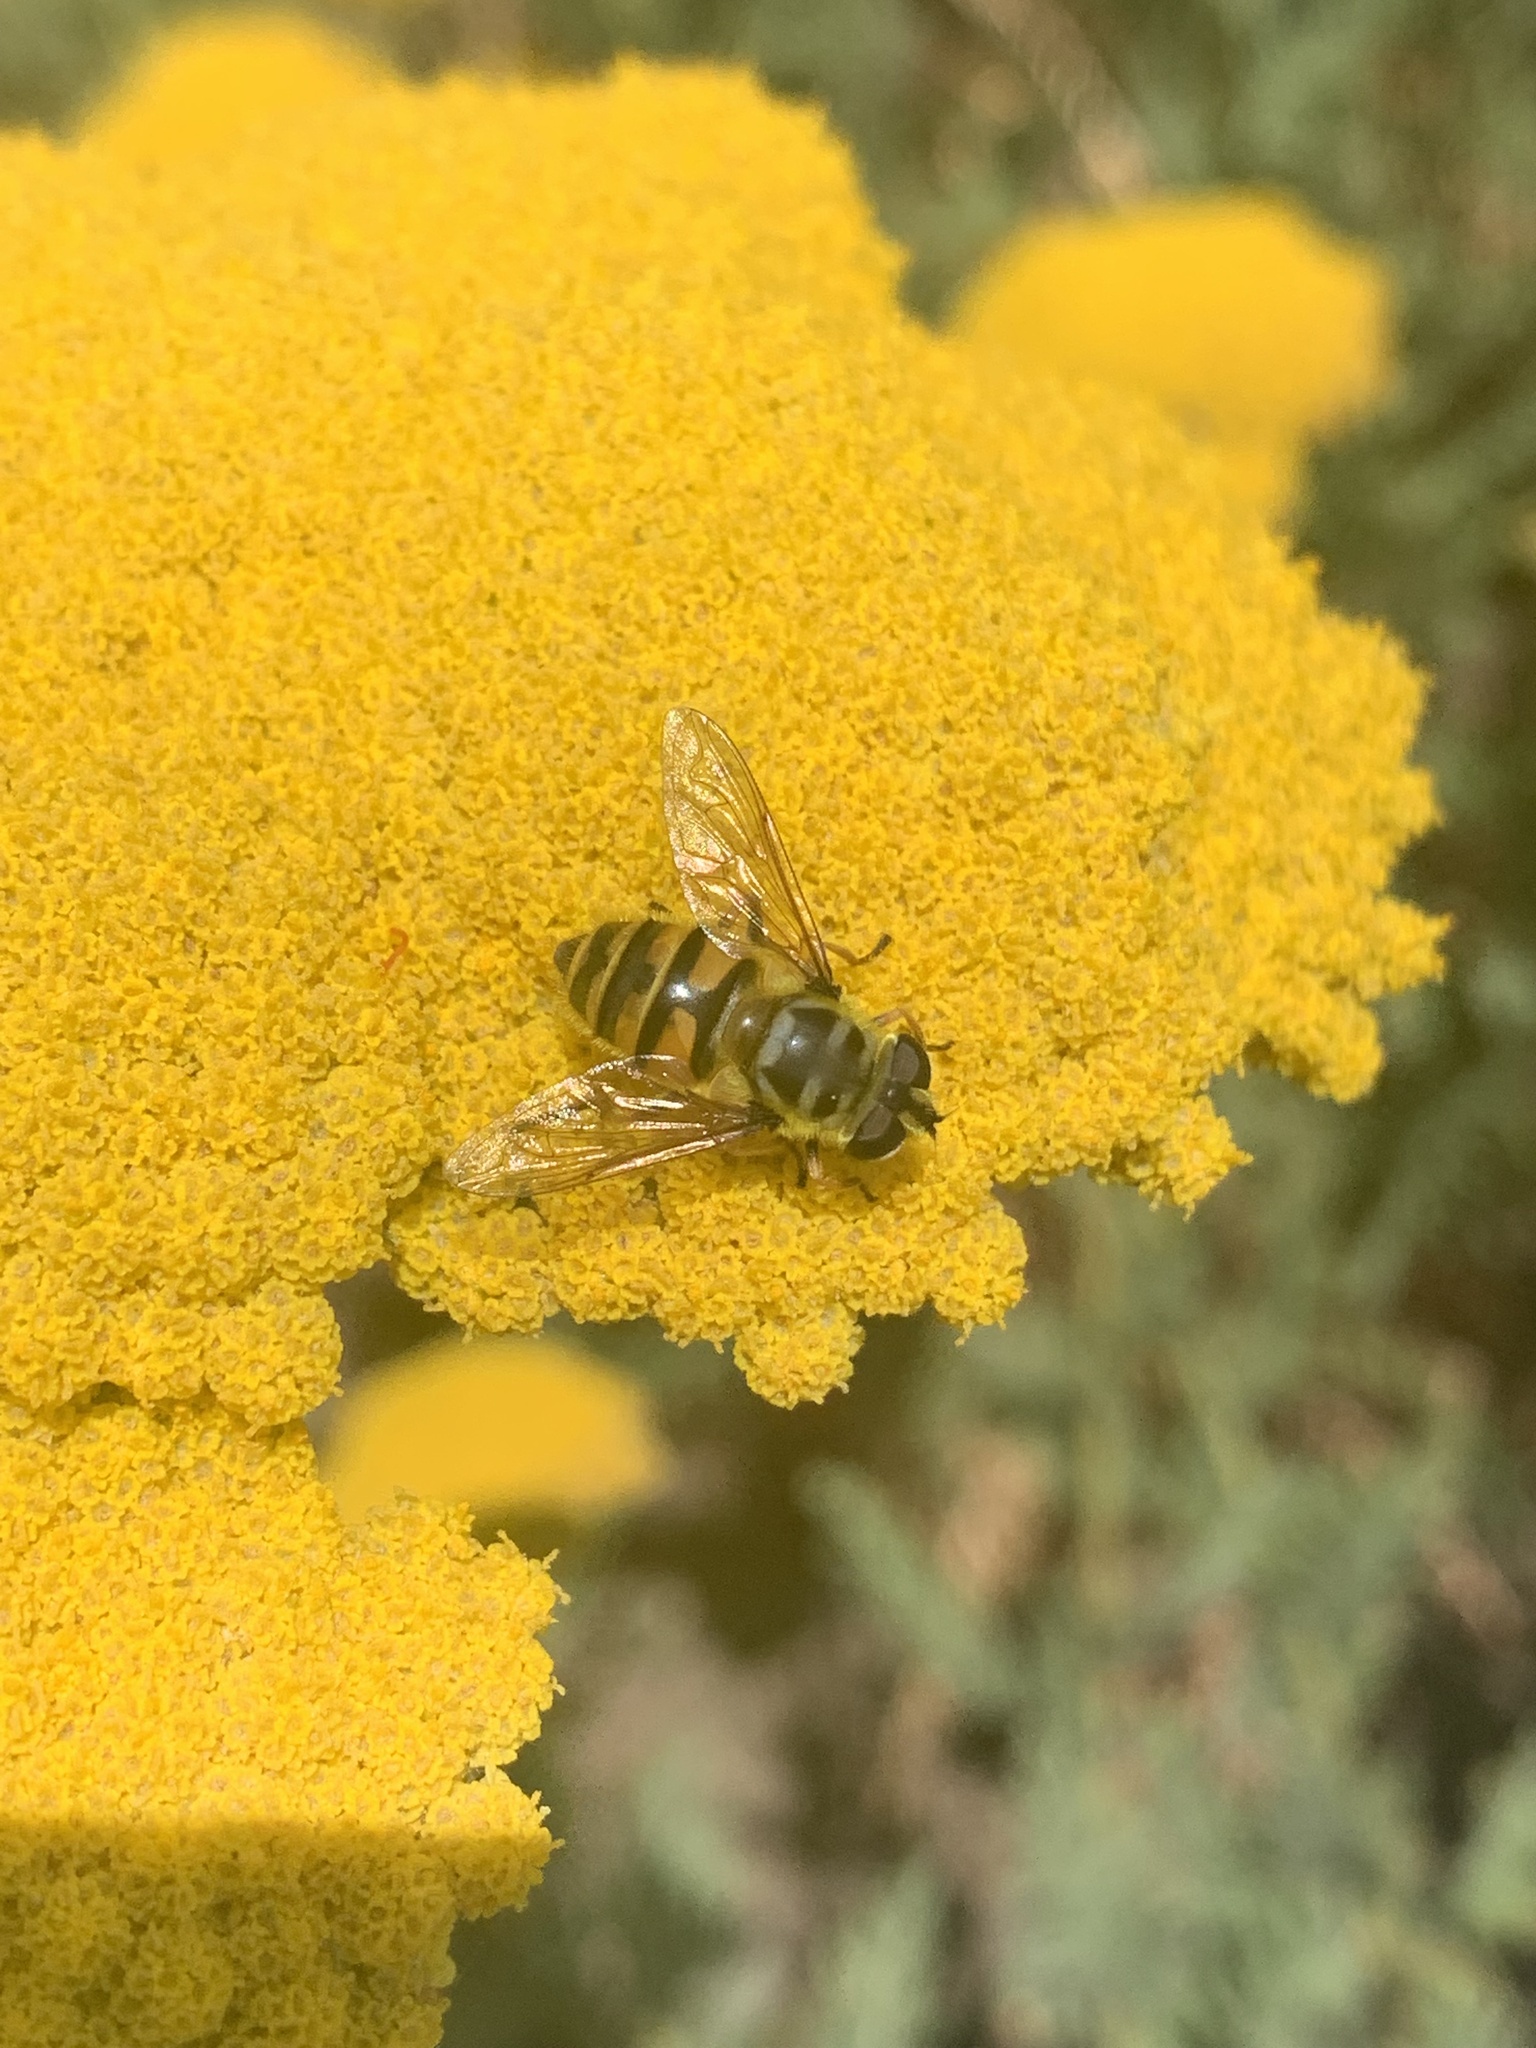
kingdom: Animalia
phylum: Arthropoda
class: Insecta
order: Diptera
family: Syrphidae
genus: Myathropa
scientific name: Myathropa florea
